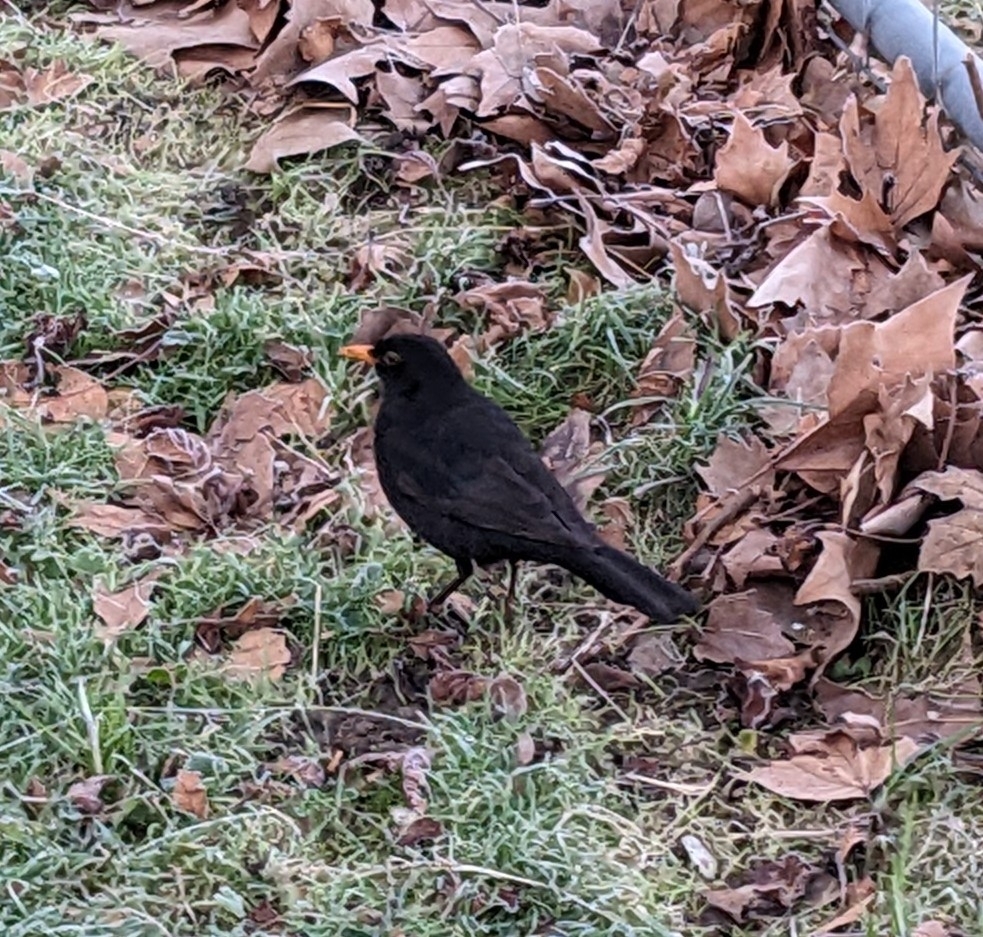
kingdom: Animalia
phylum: Chordata
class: Aves
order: Passeriformes
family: Turdidae
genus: Turdus
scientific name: Turdus merula
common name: Common blackbird
